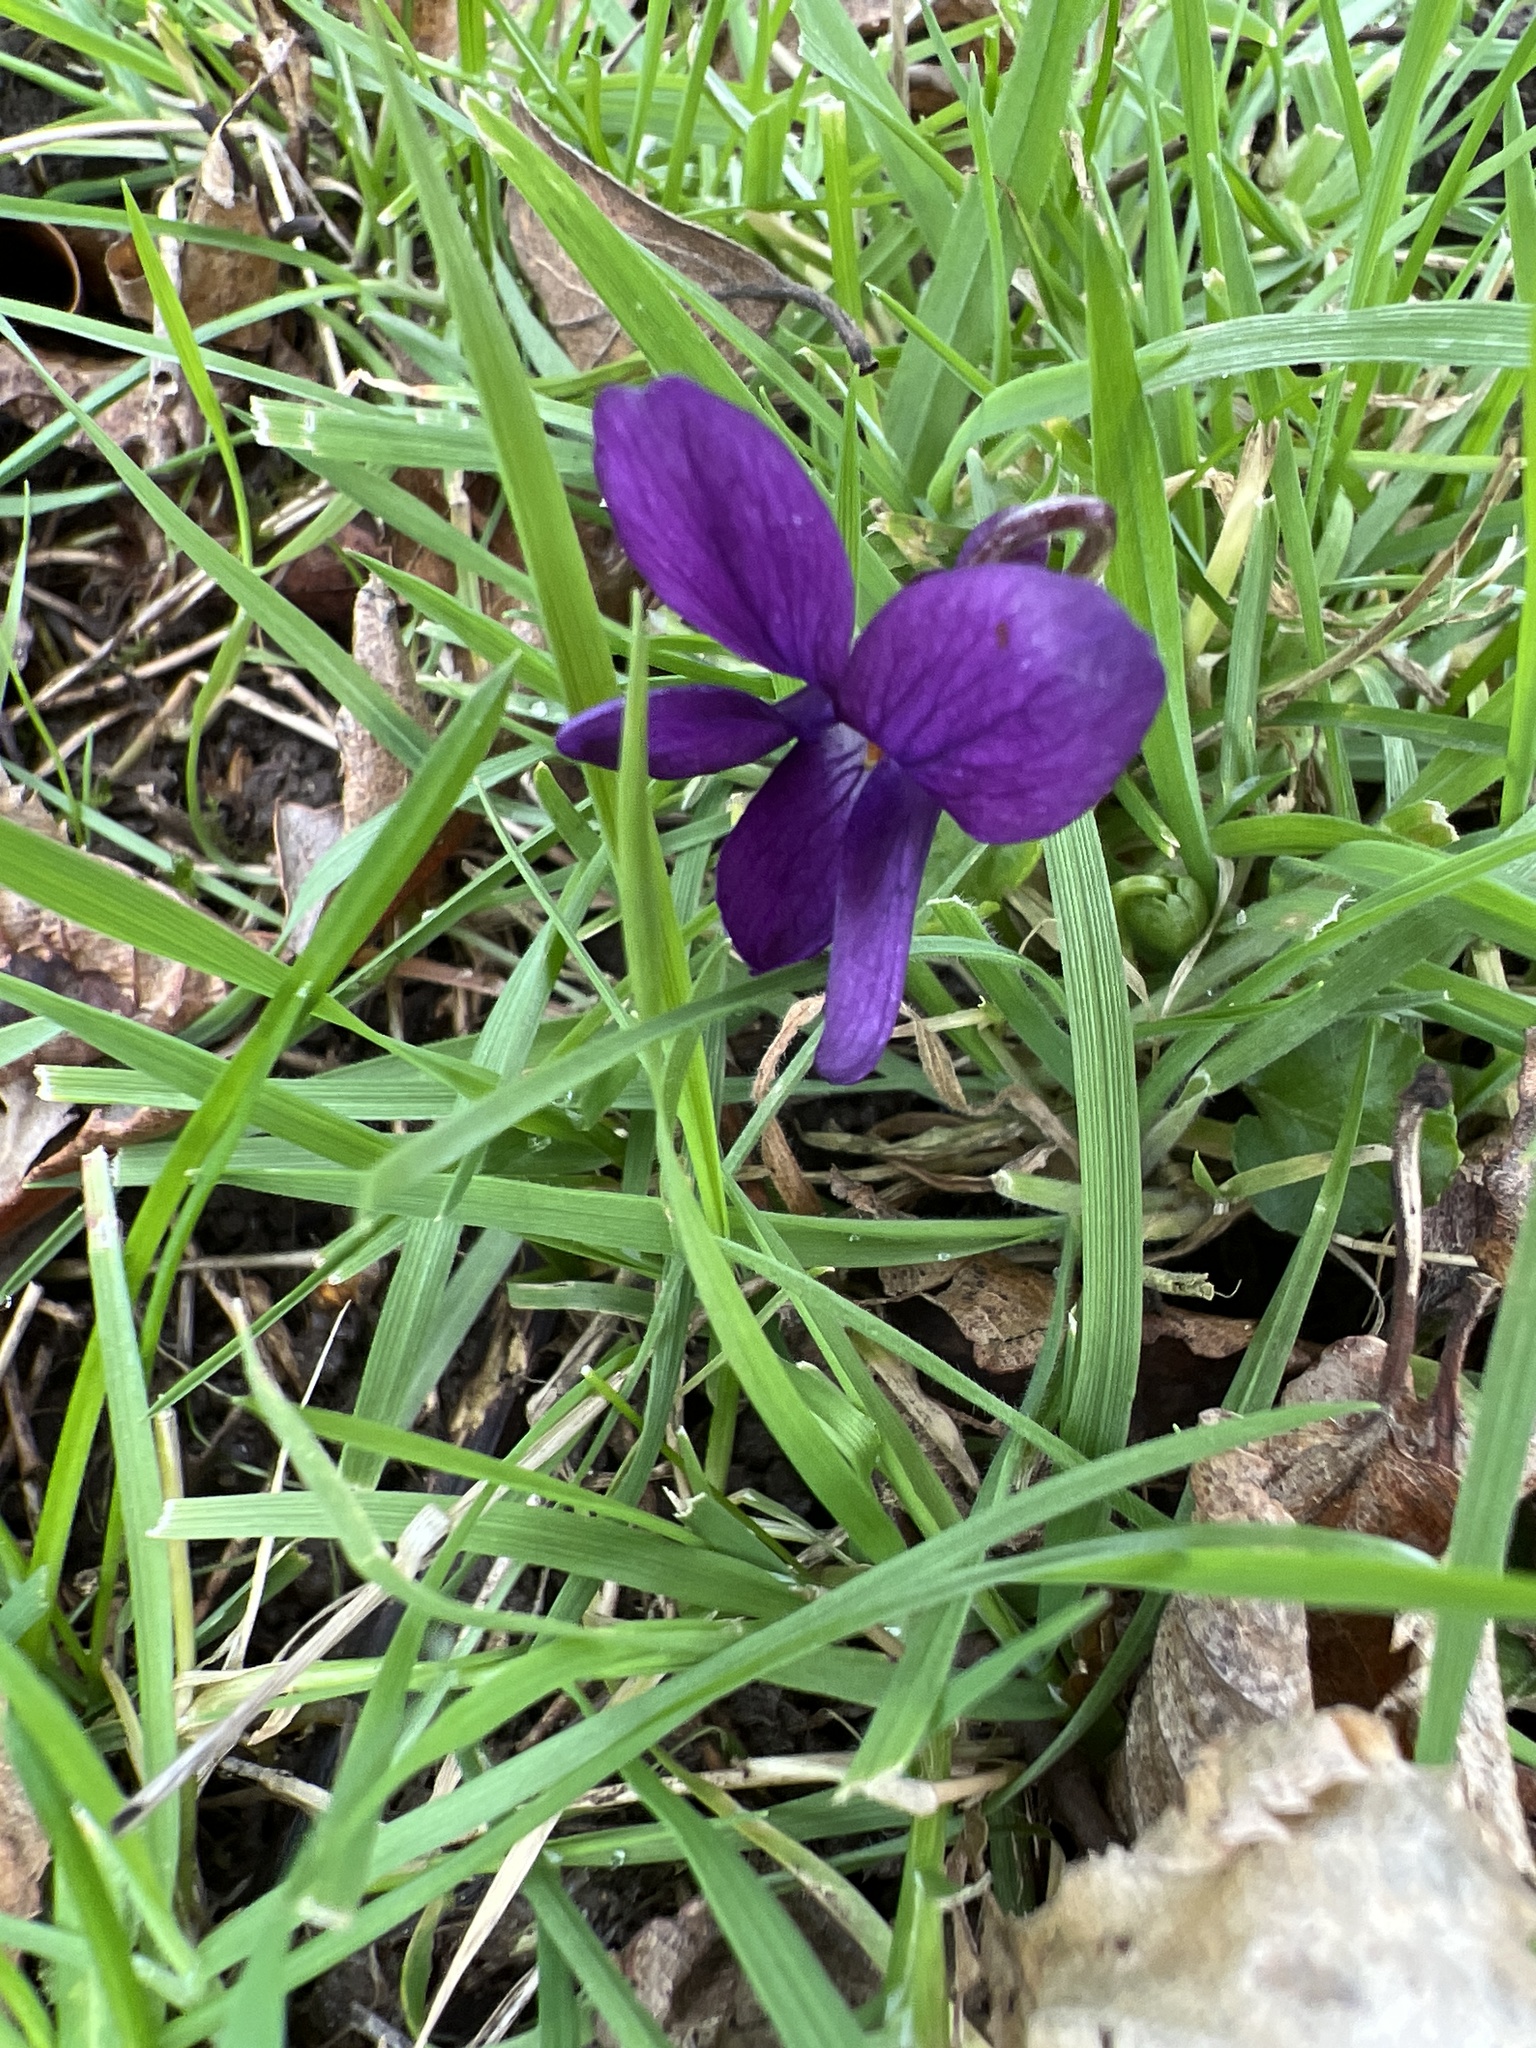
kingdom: Plantae
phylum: Tracheophyta
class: Magnoliopsida
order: Malpighiales
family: Violaceae
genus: Viola
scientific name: Viola odorata
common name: Sweet violet
